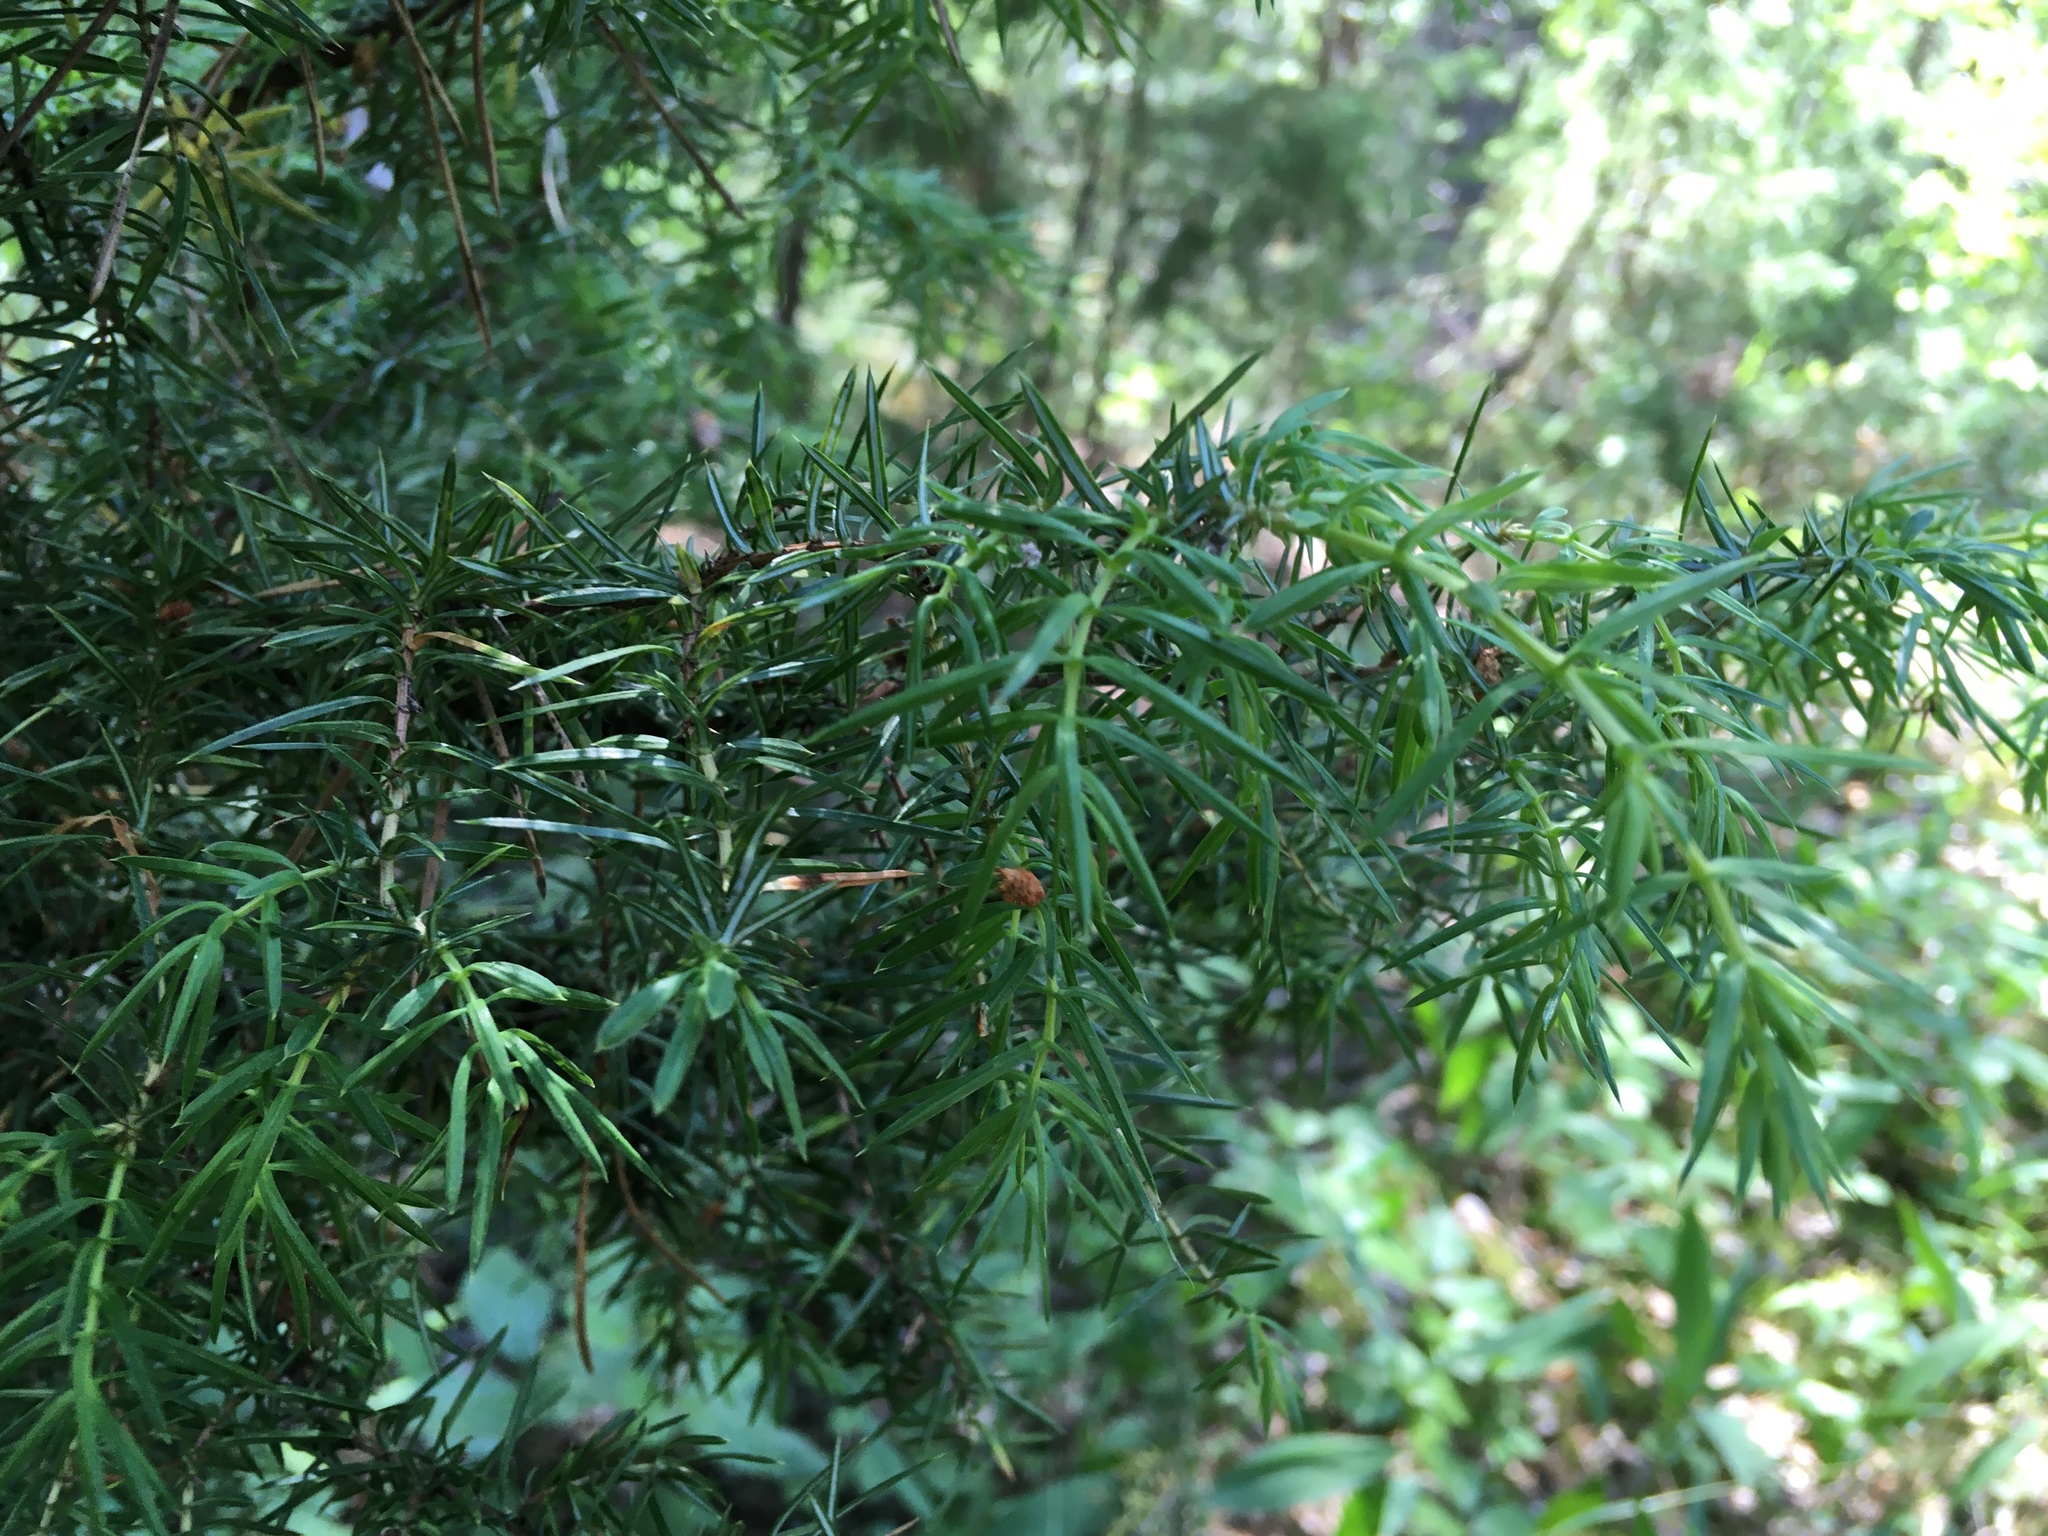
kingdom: Plantae
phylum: Tracheophyta
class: Pinopsida
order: Pinales
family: Cupressaceae
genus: Juniperus
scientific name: Juniperus communis
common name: Common juniper
